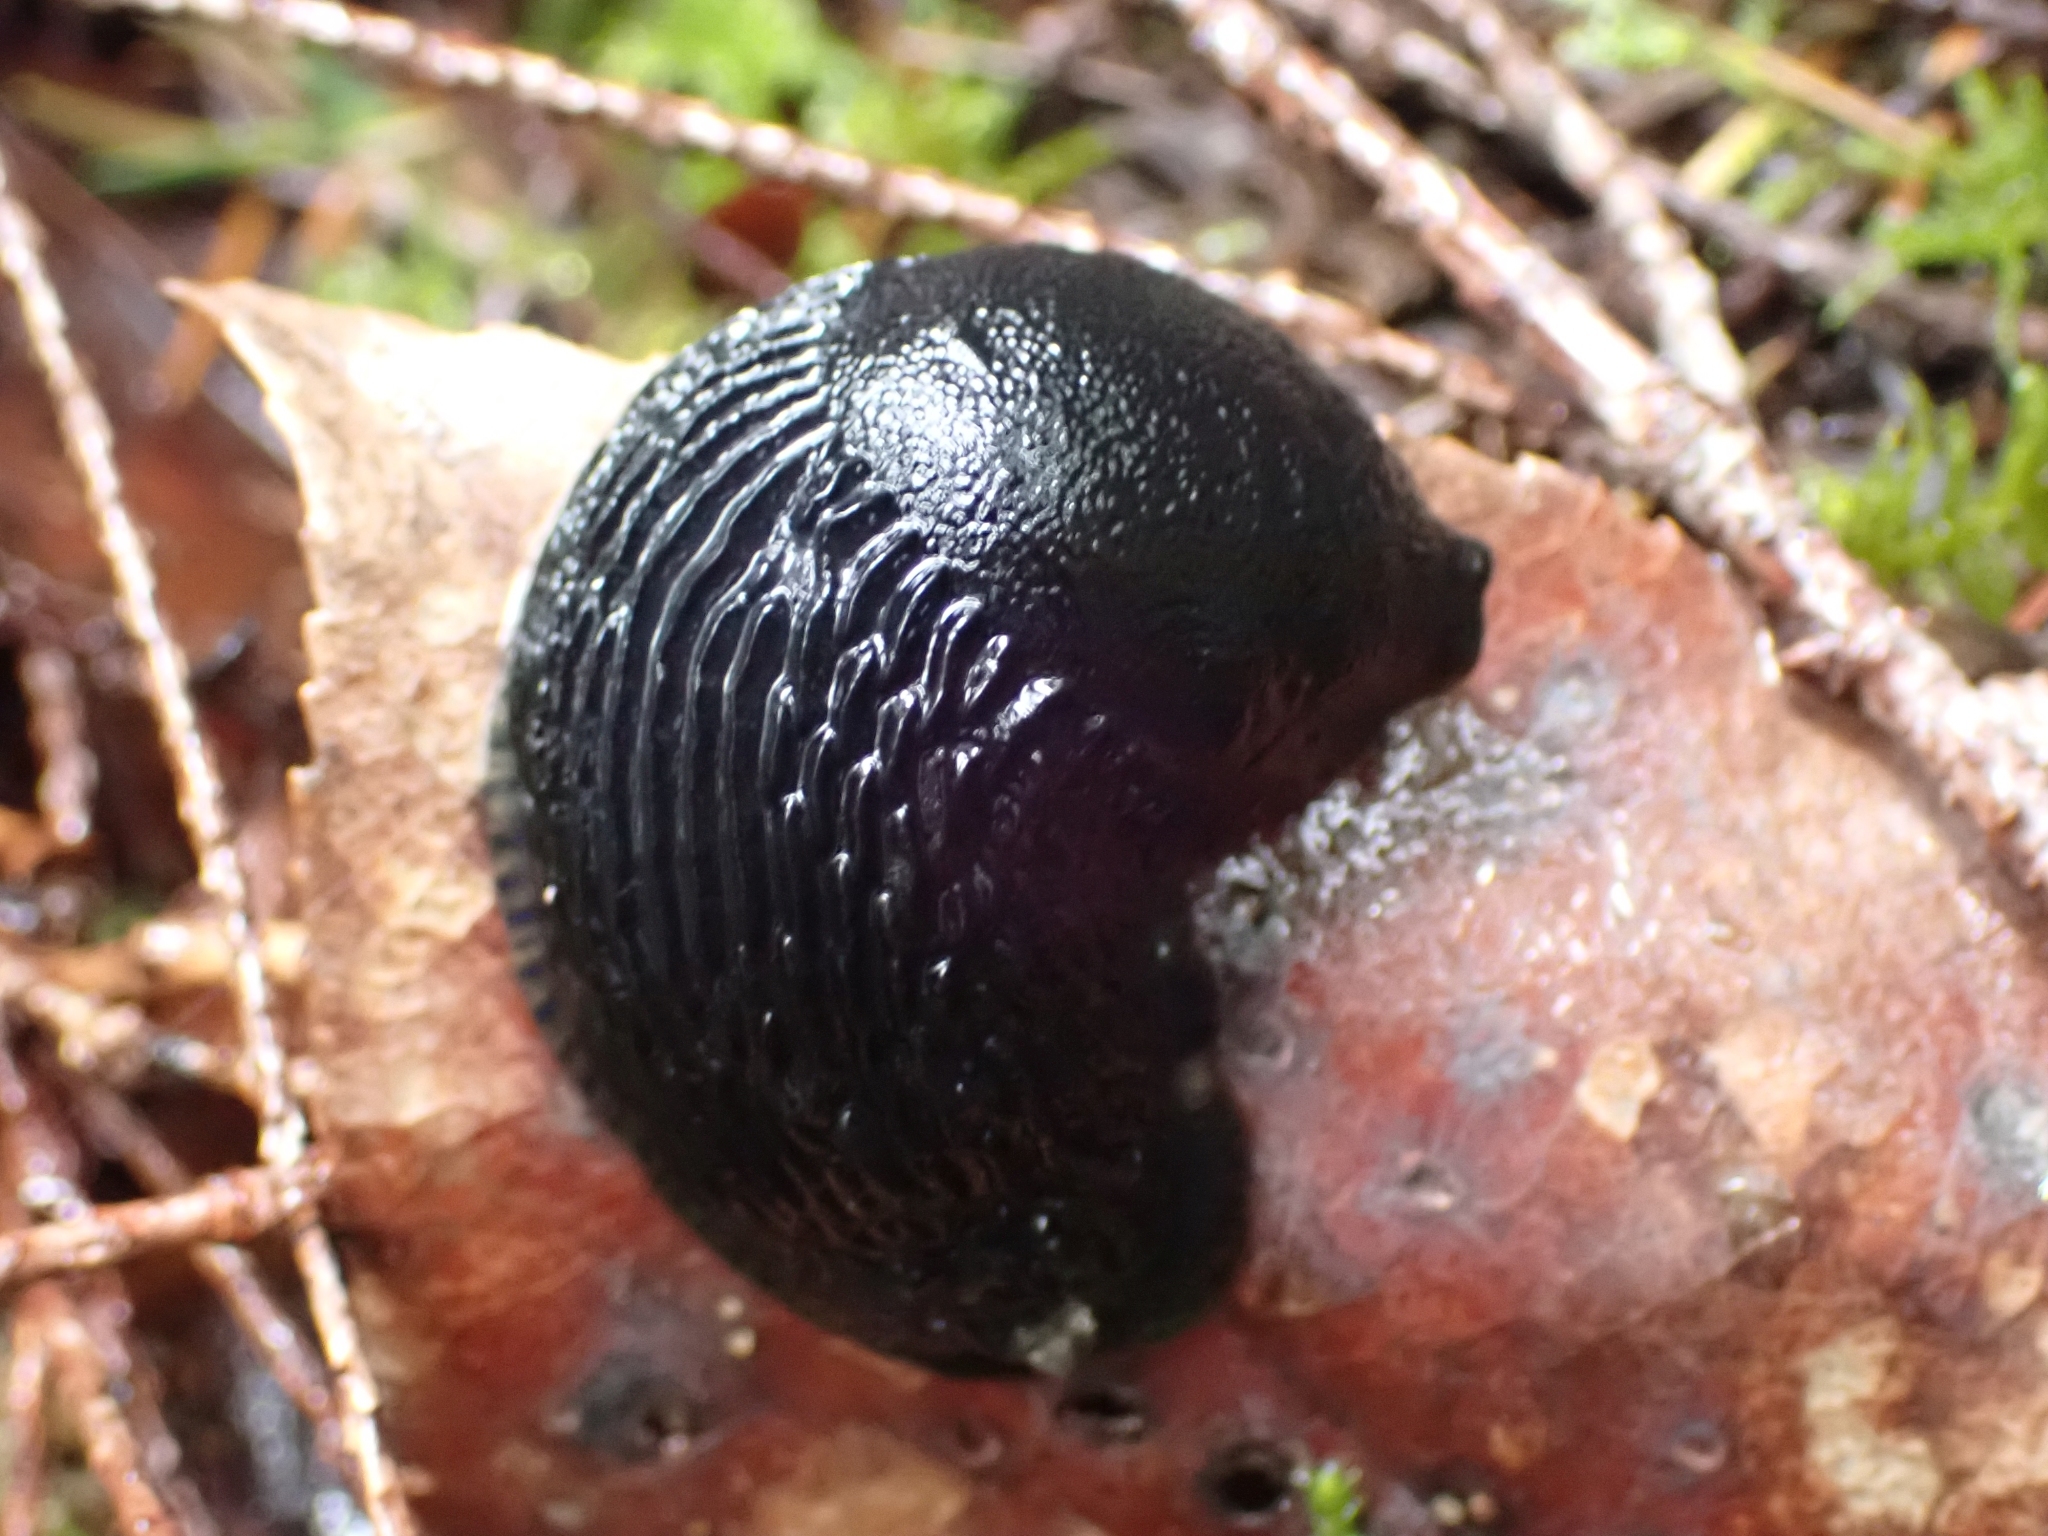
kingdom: Animalia
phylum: Mollusca
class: Gastropoda
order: Stylommatophora
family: Arionidae
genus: Arion
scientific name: Arion
